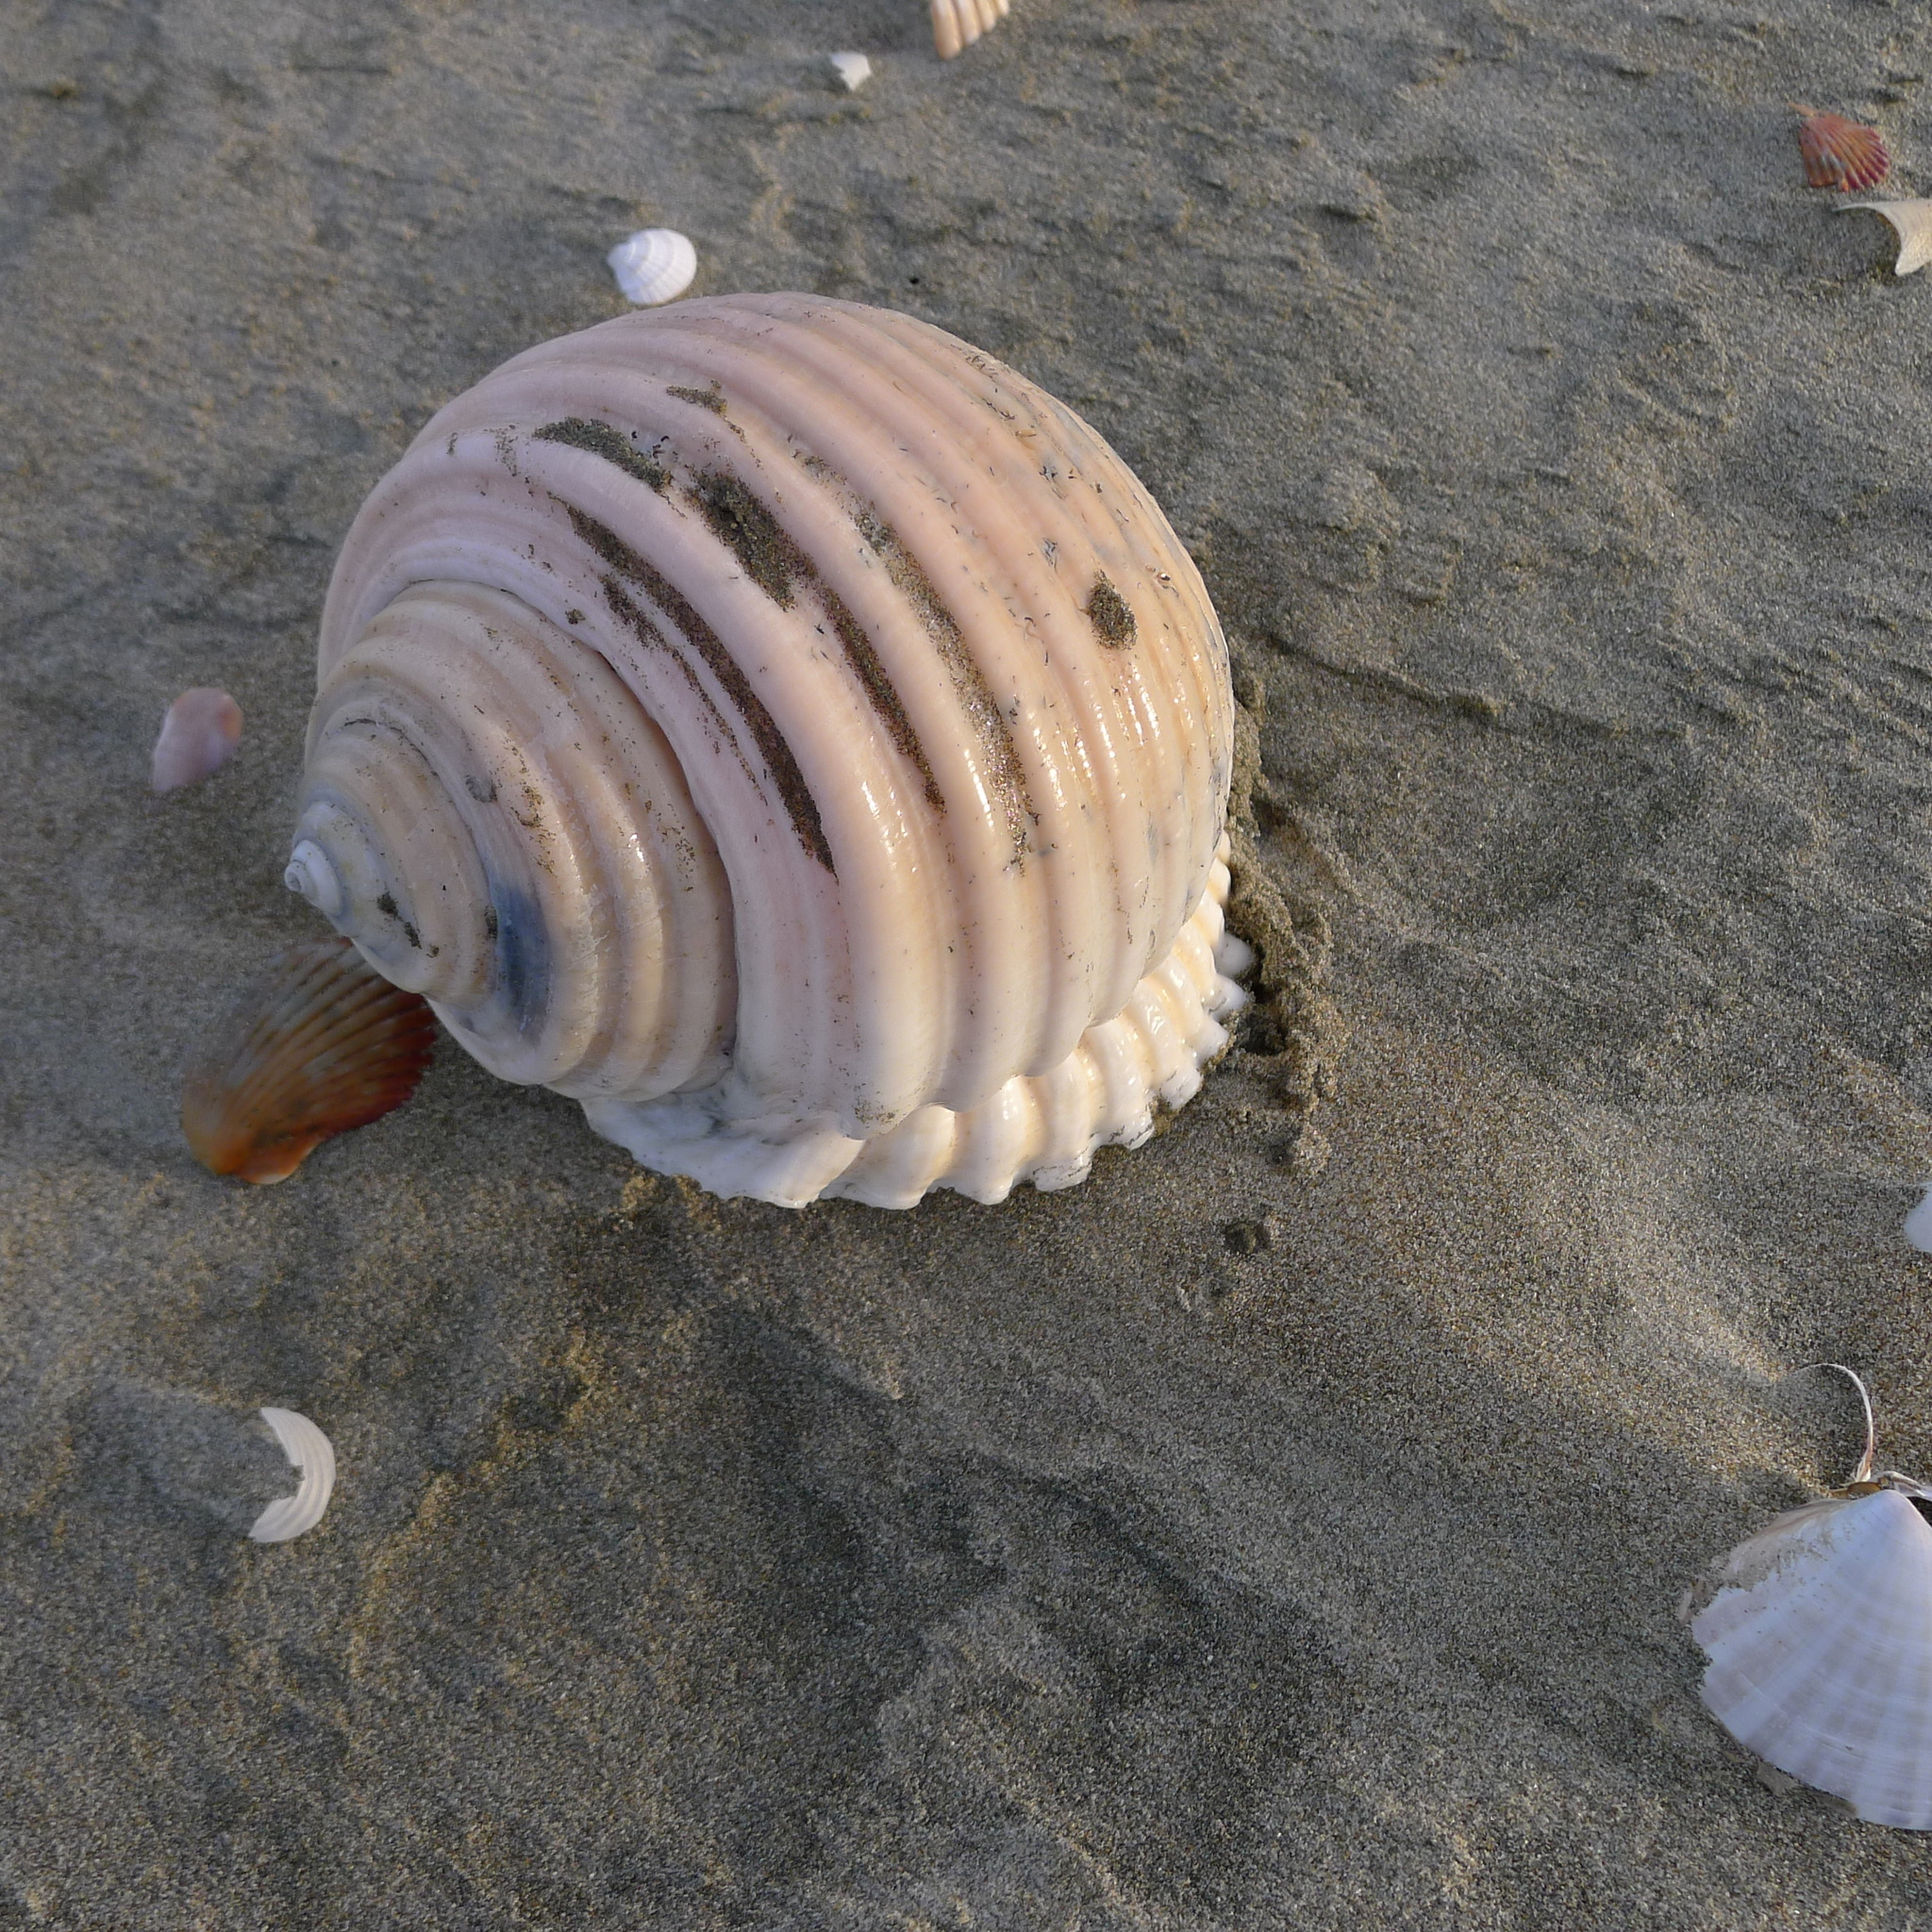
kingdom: Animalia
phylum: Mollusca
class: Gastropoda
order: Littorinimorpha
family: Tonnidae
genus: Malea
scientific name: Malea ringens
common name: Great grinning tun
